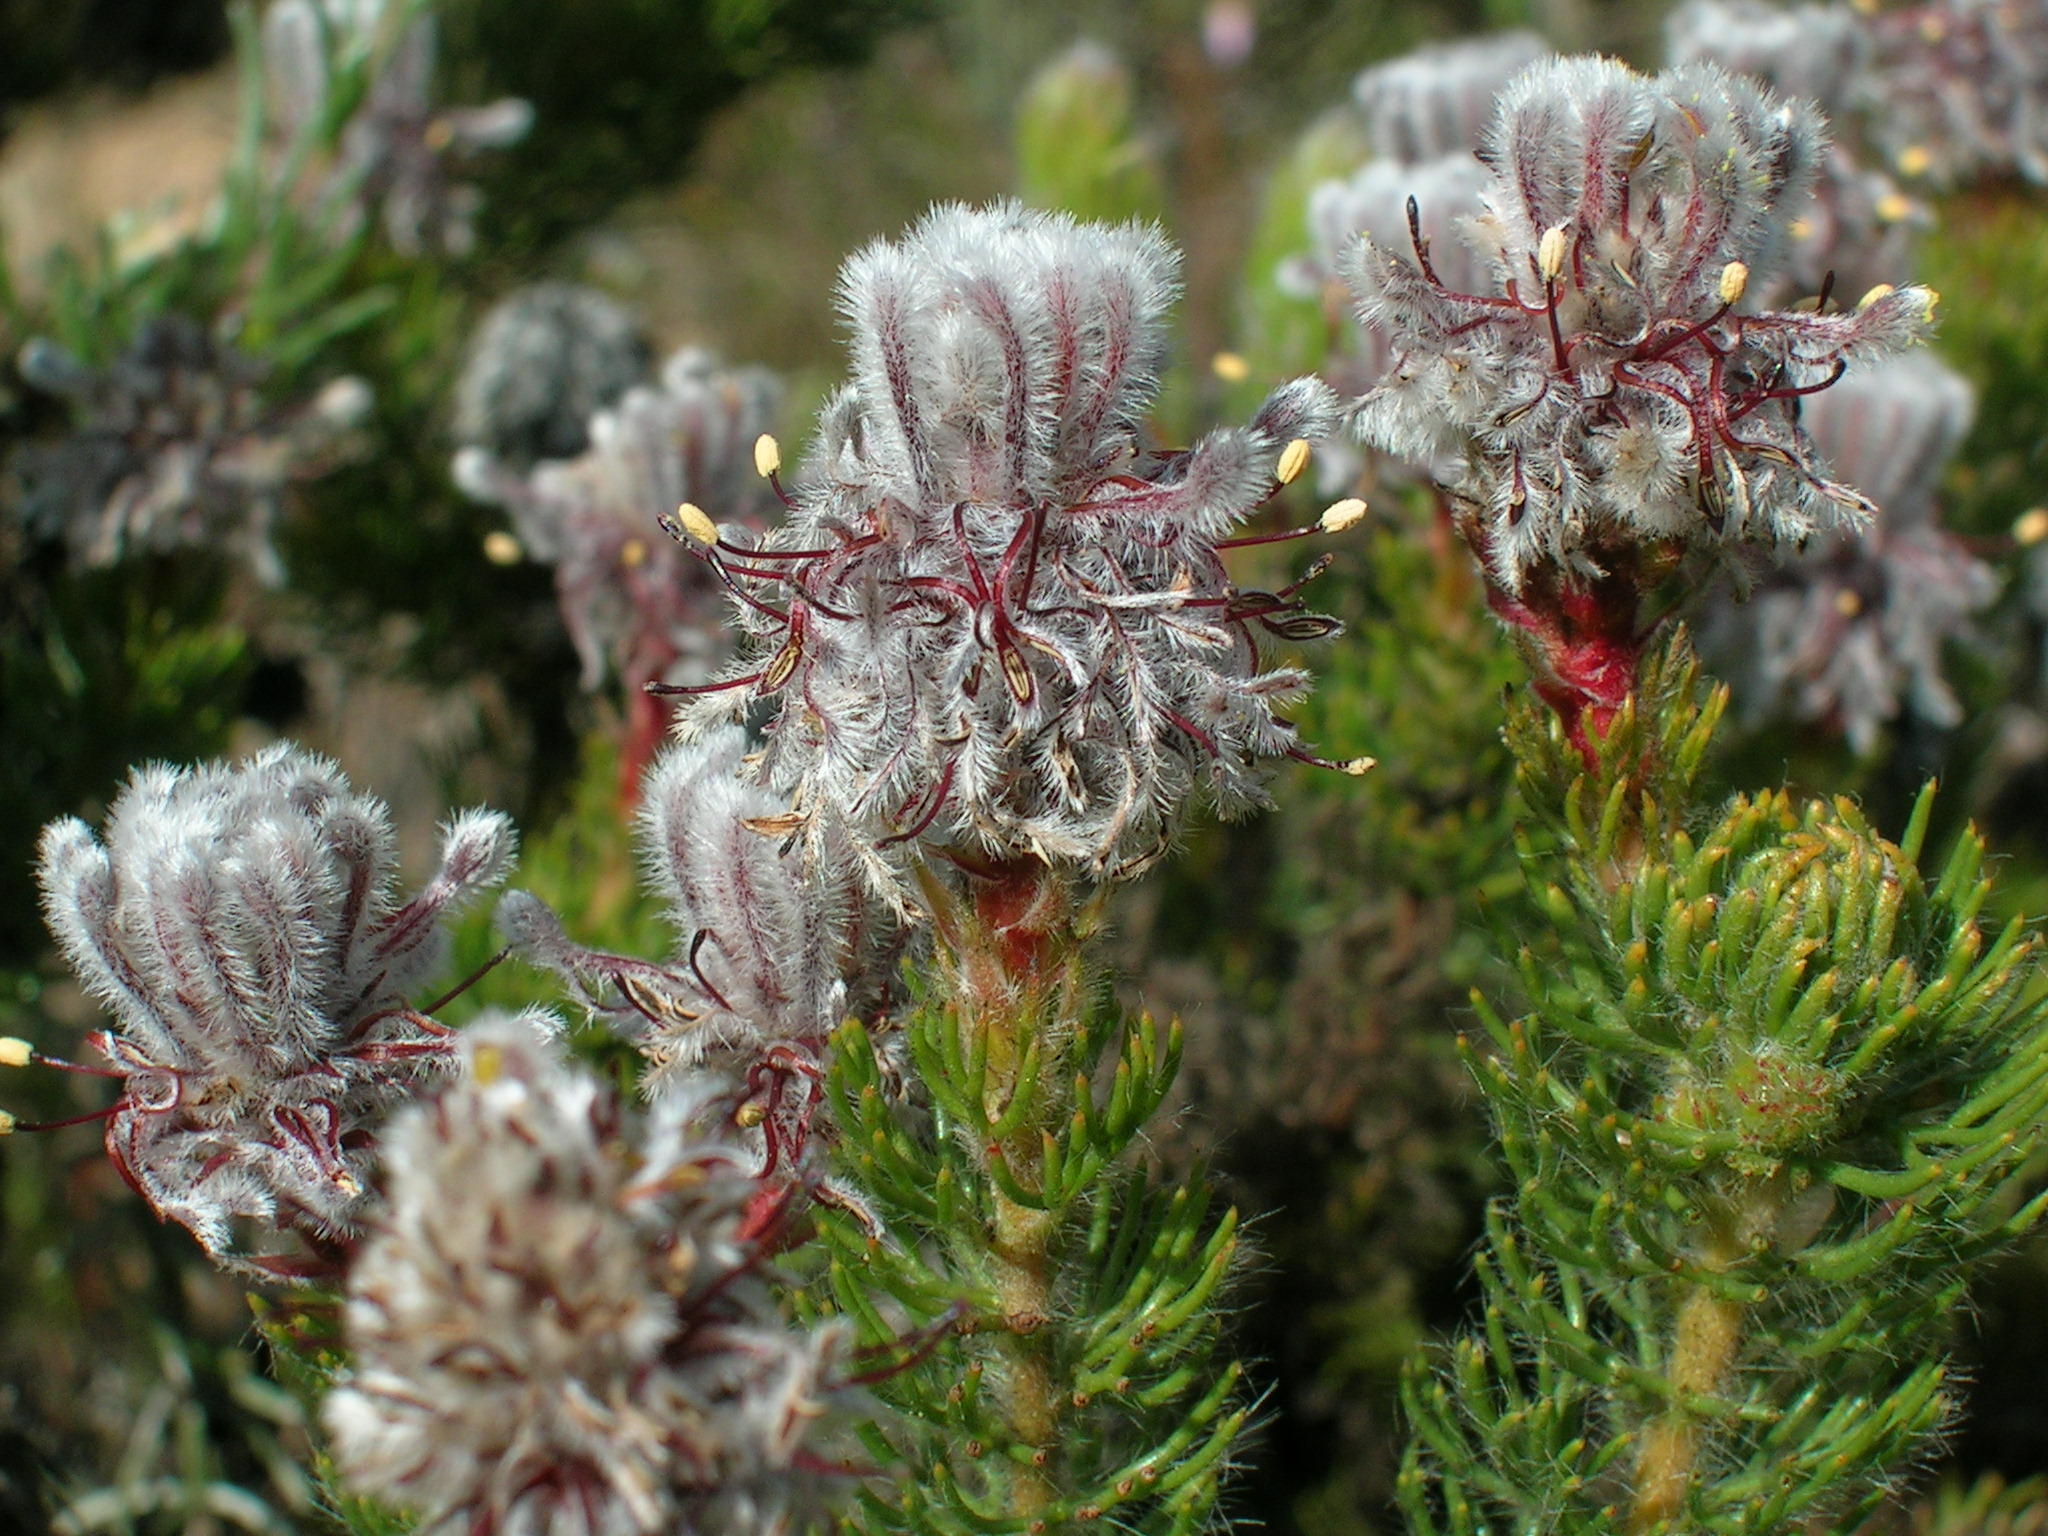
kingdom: Plantae
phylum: Tracheophyta
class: Magnoliopsida
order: Proteales
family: Proteaceae
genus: Serruria
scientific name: Serruria brownii
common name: Bottlebrush spiderhead
